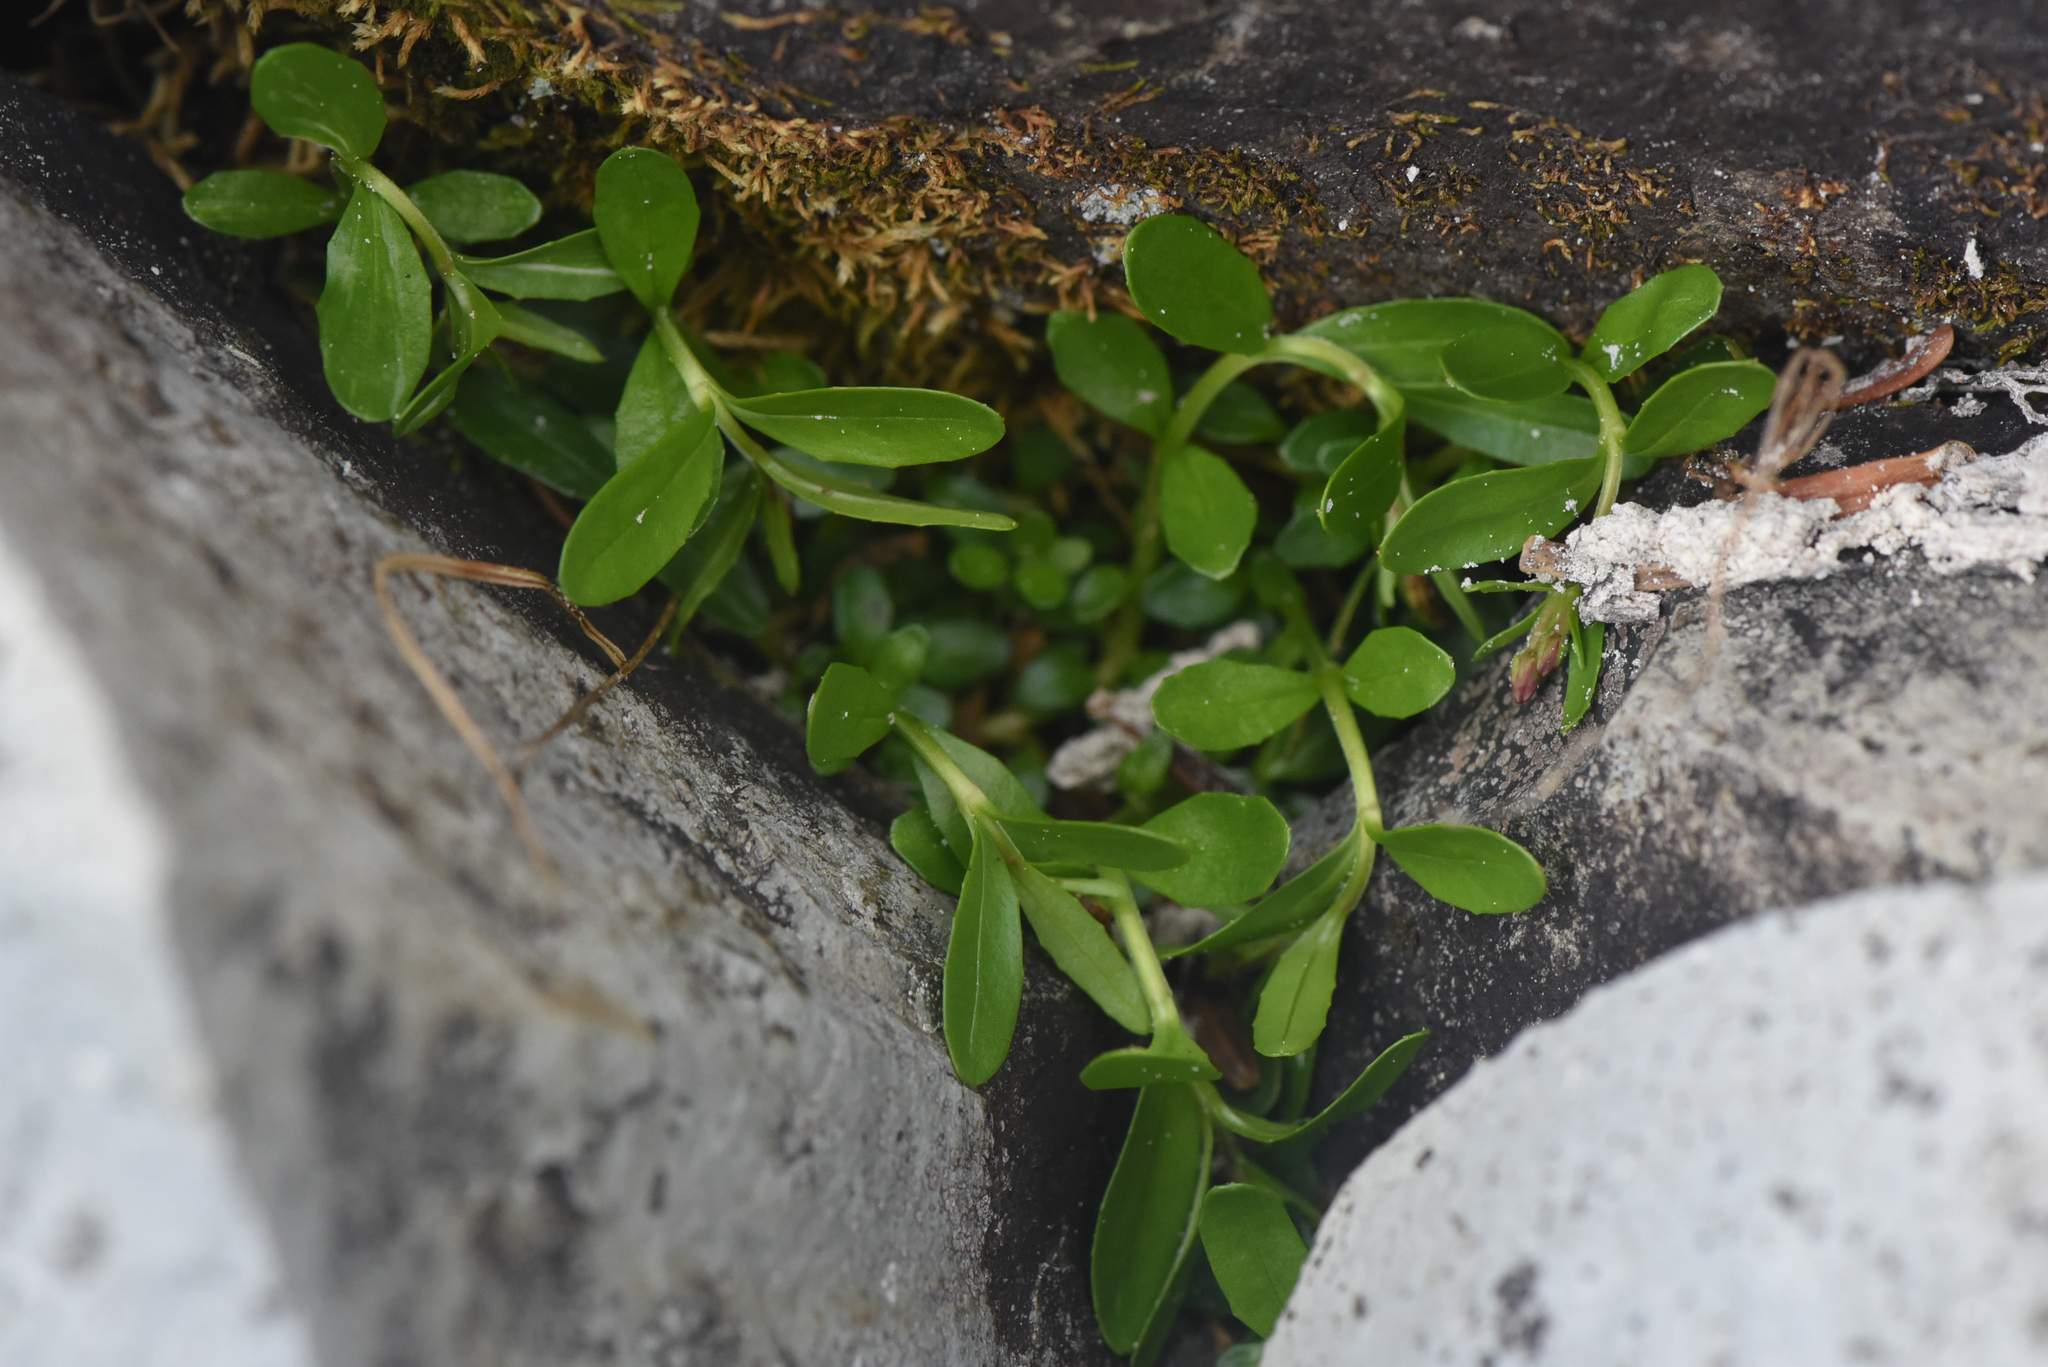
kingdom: Plantae
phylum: Tracheophyta
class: Magnoliopsida
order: Myrtales
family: Onagraceae
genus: Epilobium
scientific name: Epilobium anagallidifolium
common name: Alpine willowherb
